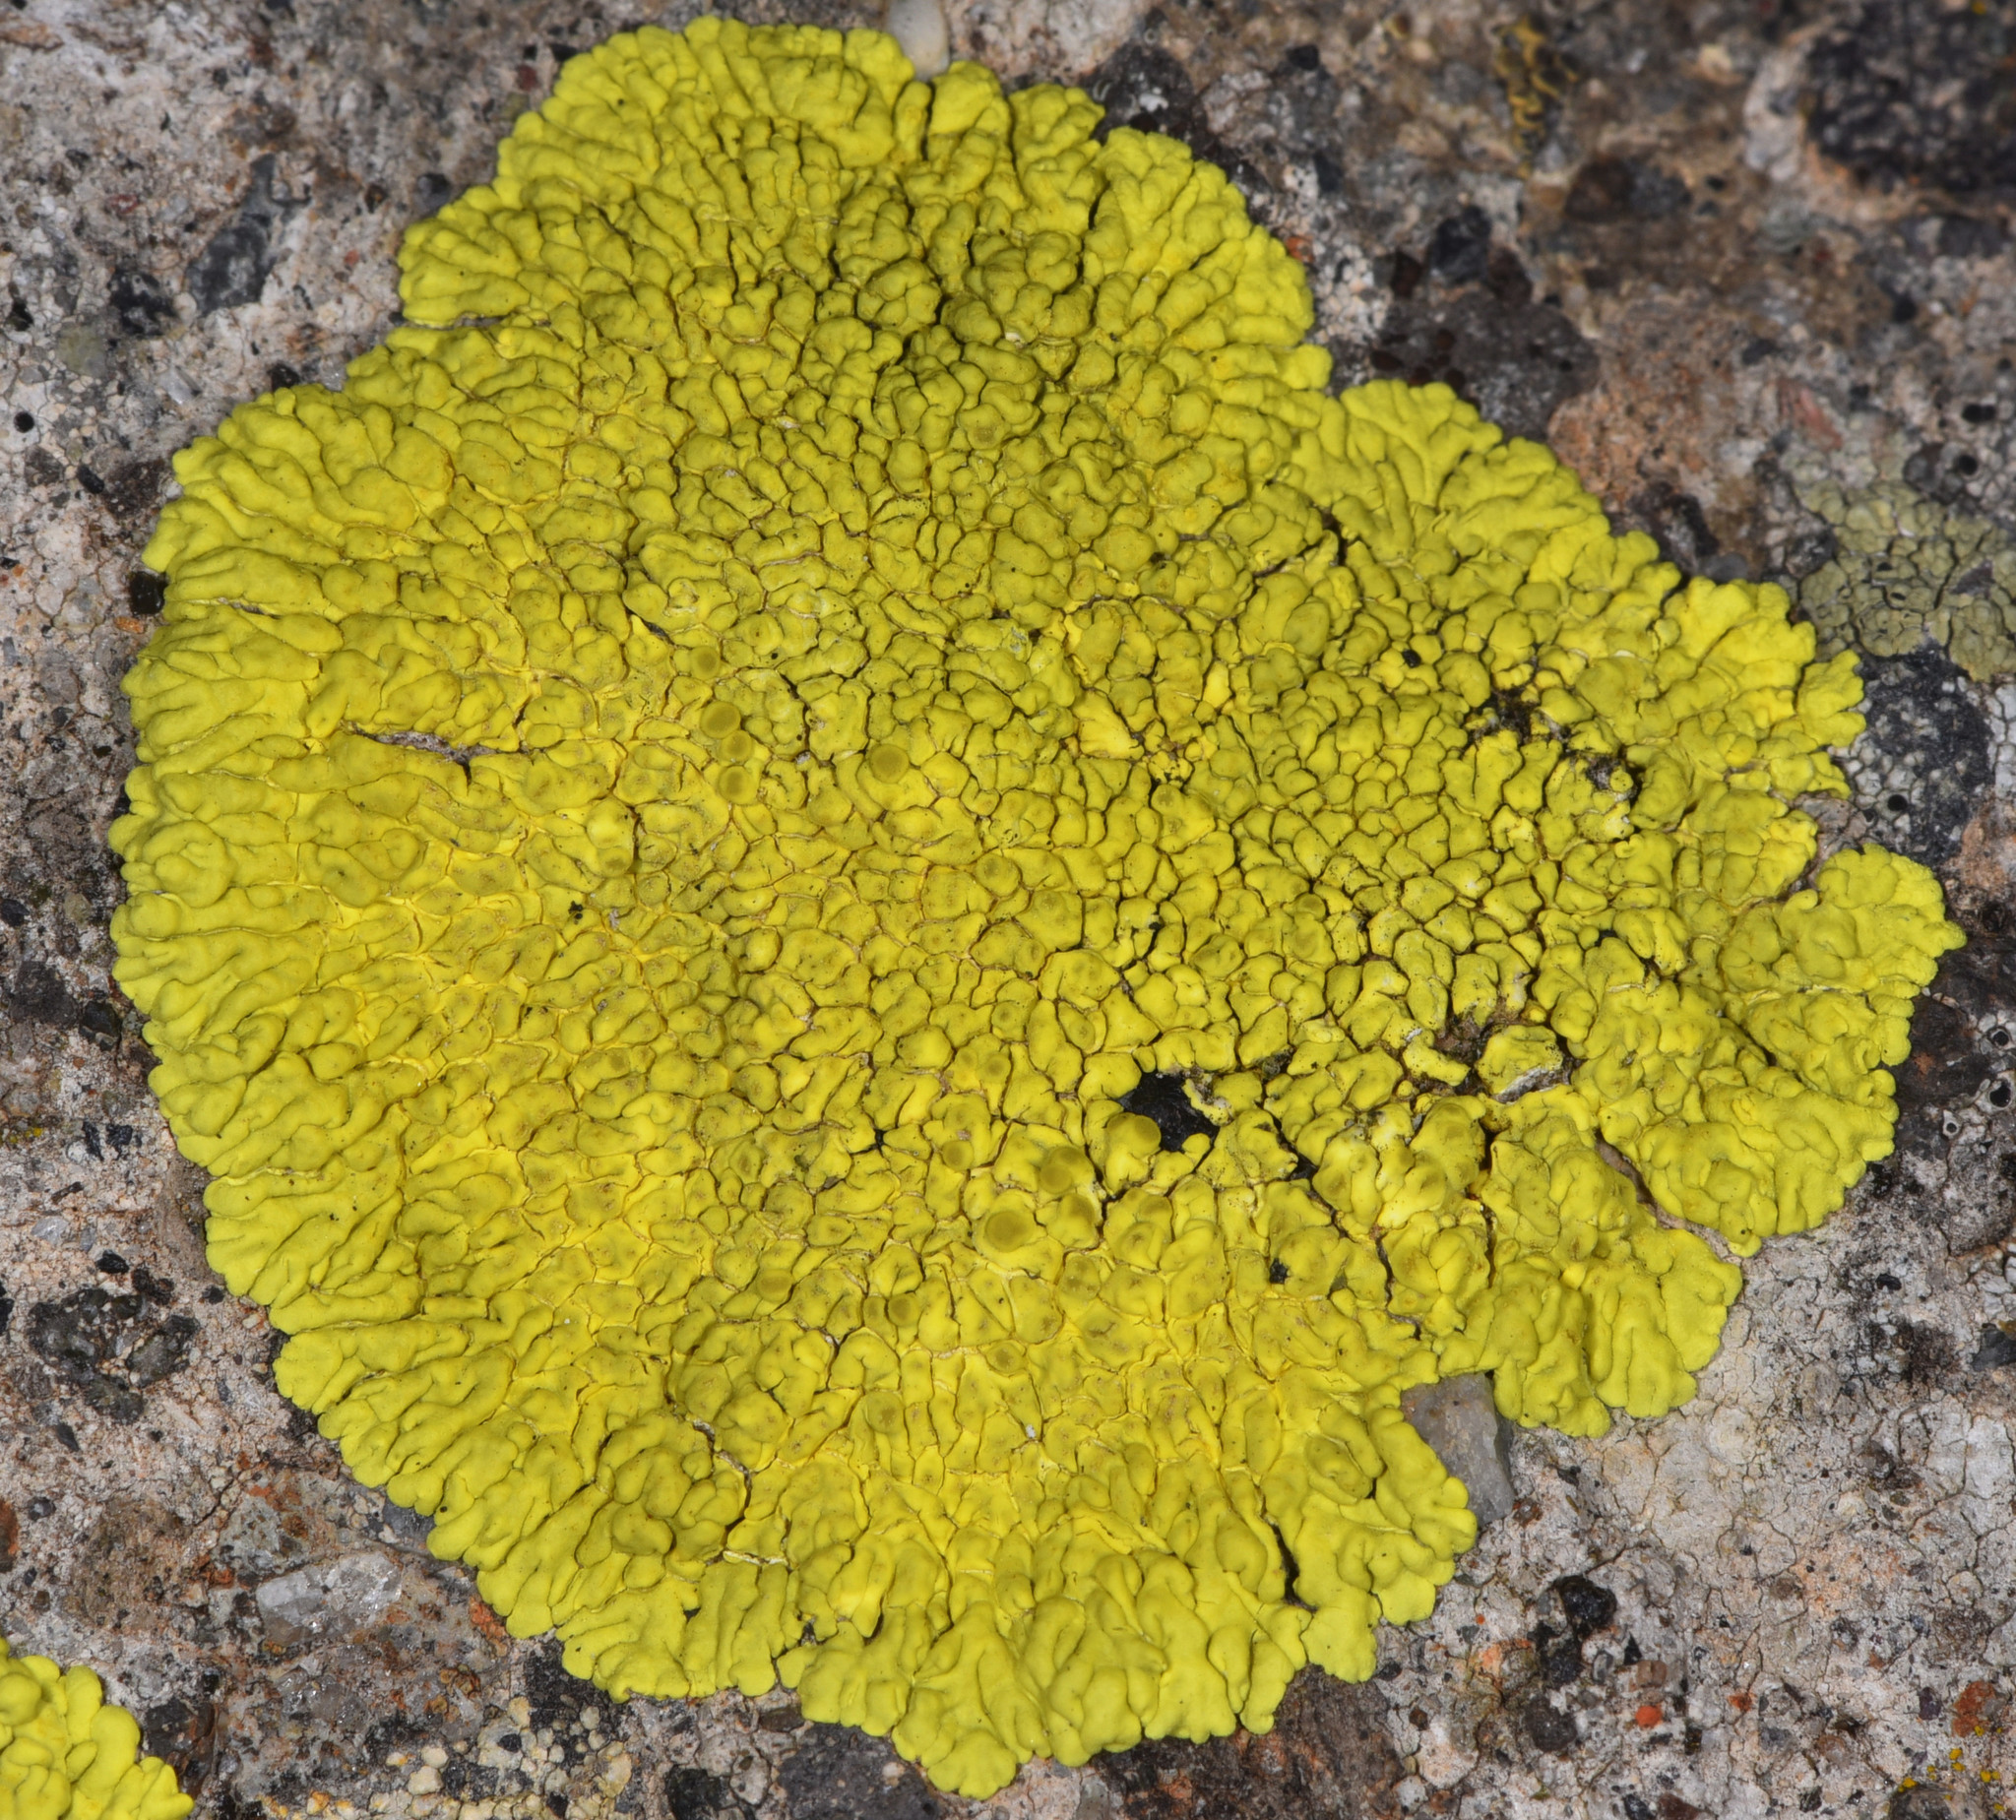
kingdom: Fungi
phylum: Ascomycota
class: Lecanoromycetes
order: Acarosporales
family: Acarosporaceae
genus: Pleopsidium
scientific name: Pleopsidium oxytonum
